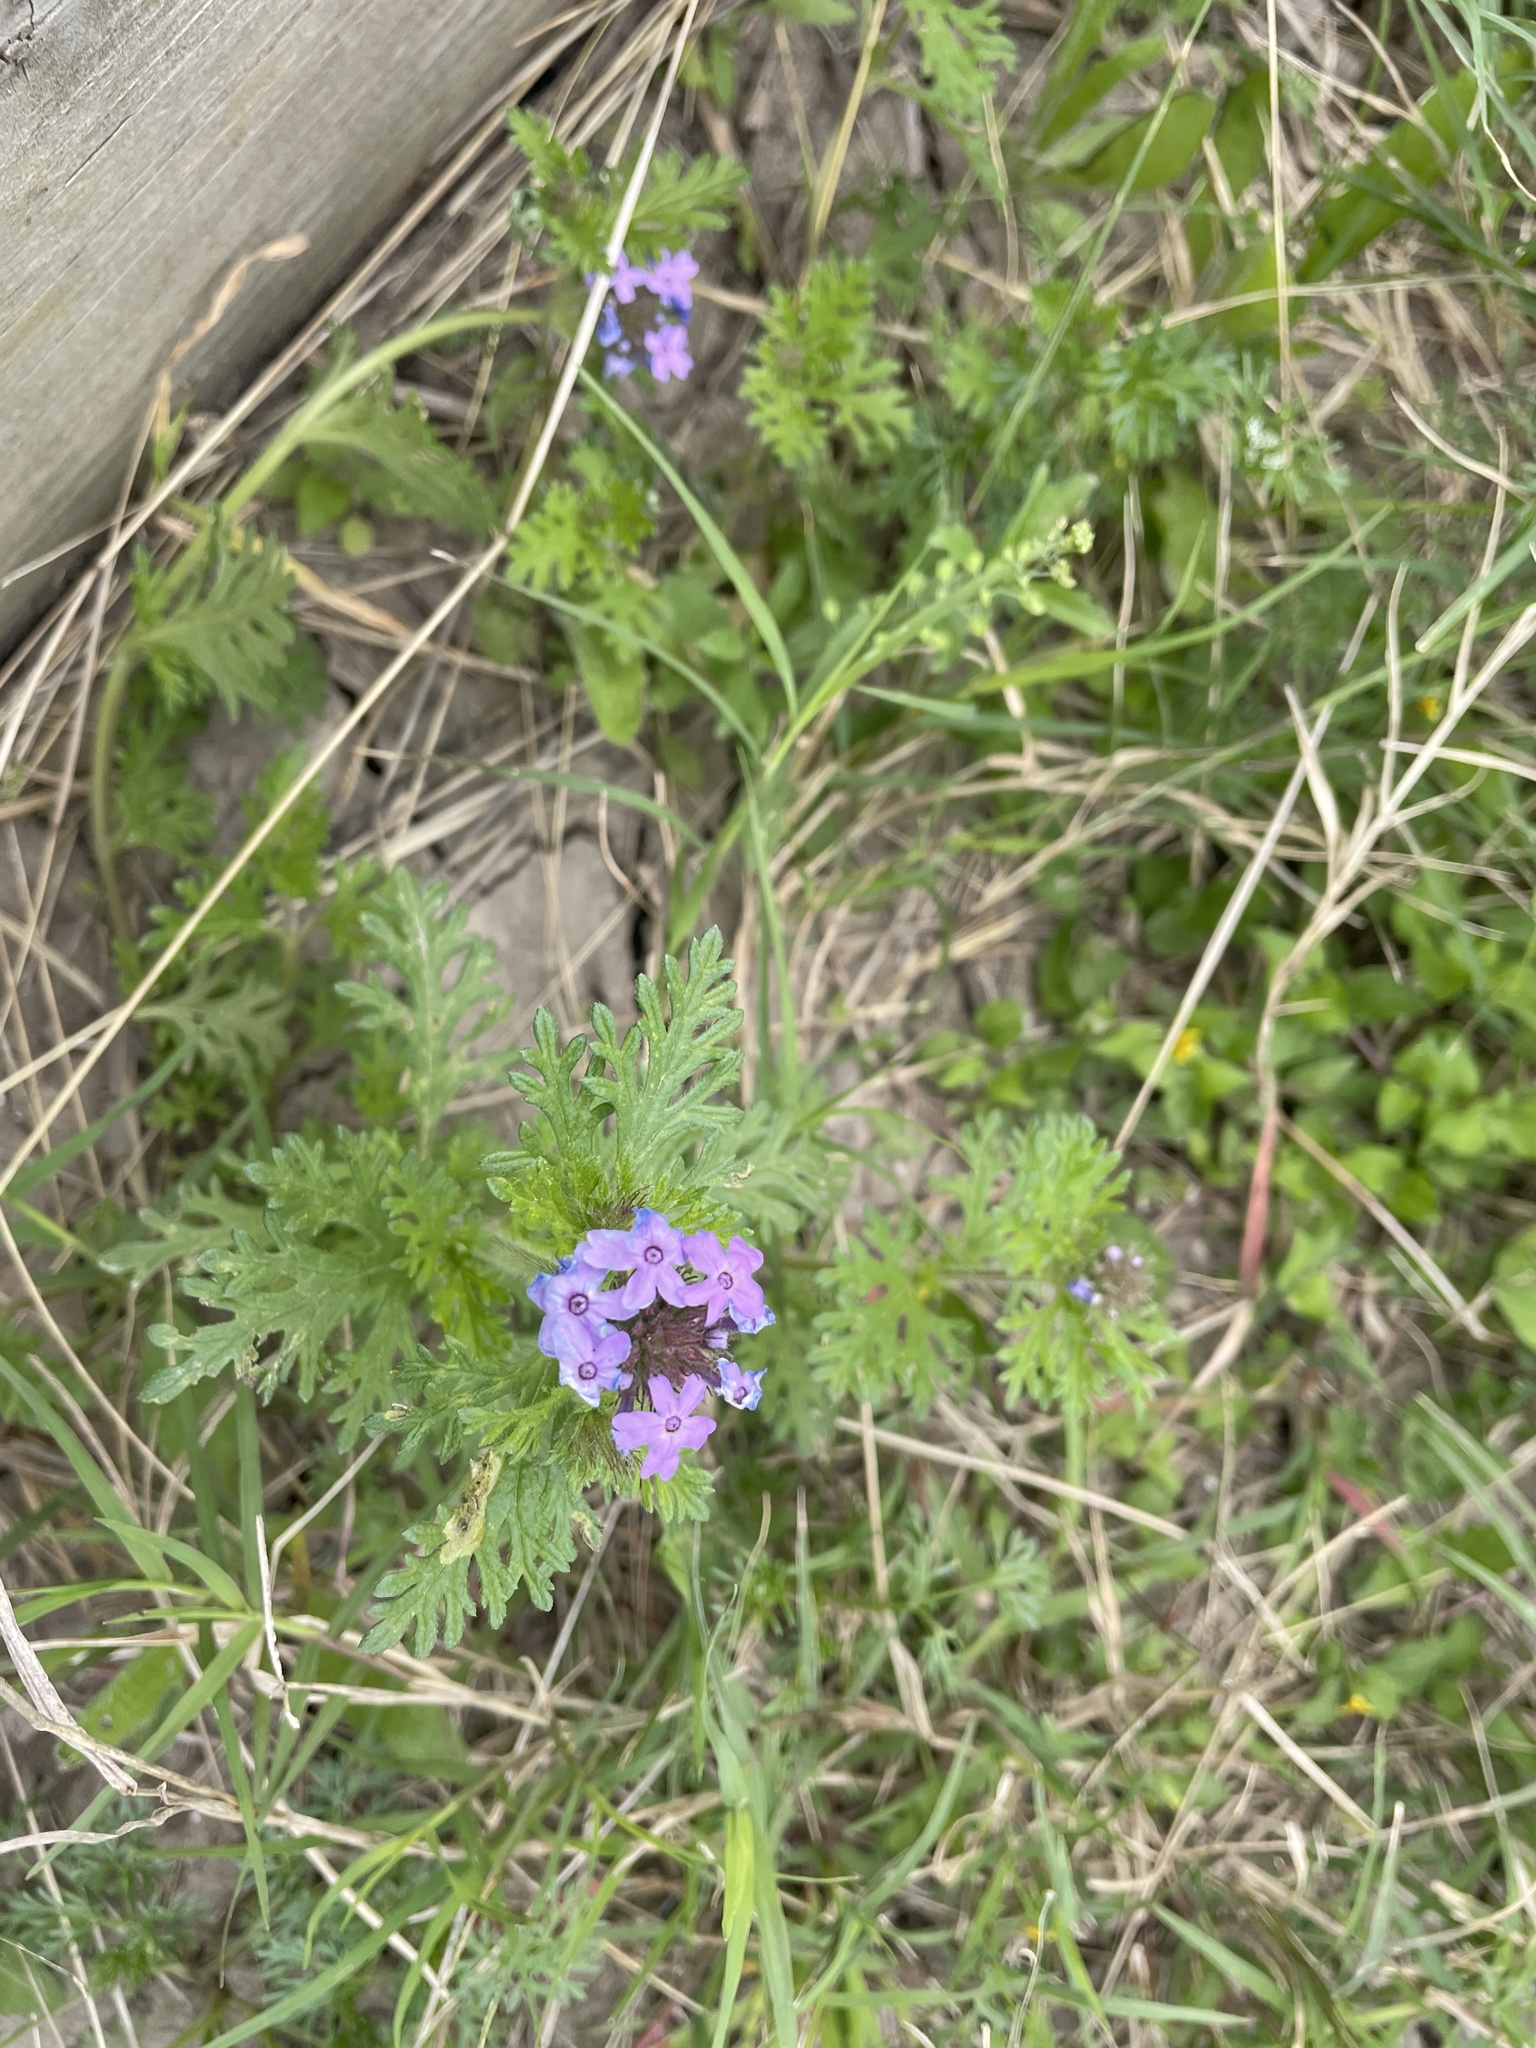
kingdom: Plantae
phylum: Tracheophyta
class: Magnoliopsida
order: Lamiales
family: Verbenaceae
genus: Verbena
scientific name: Verbena bipinnatifida
